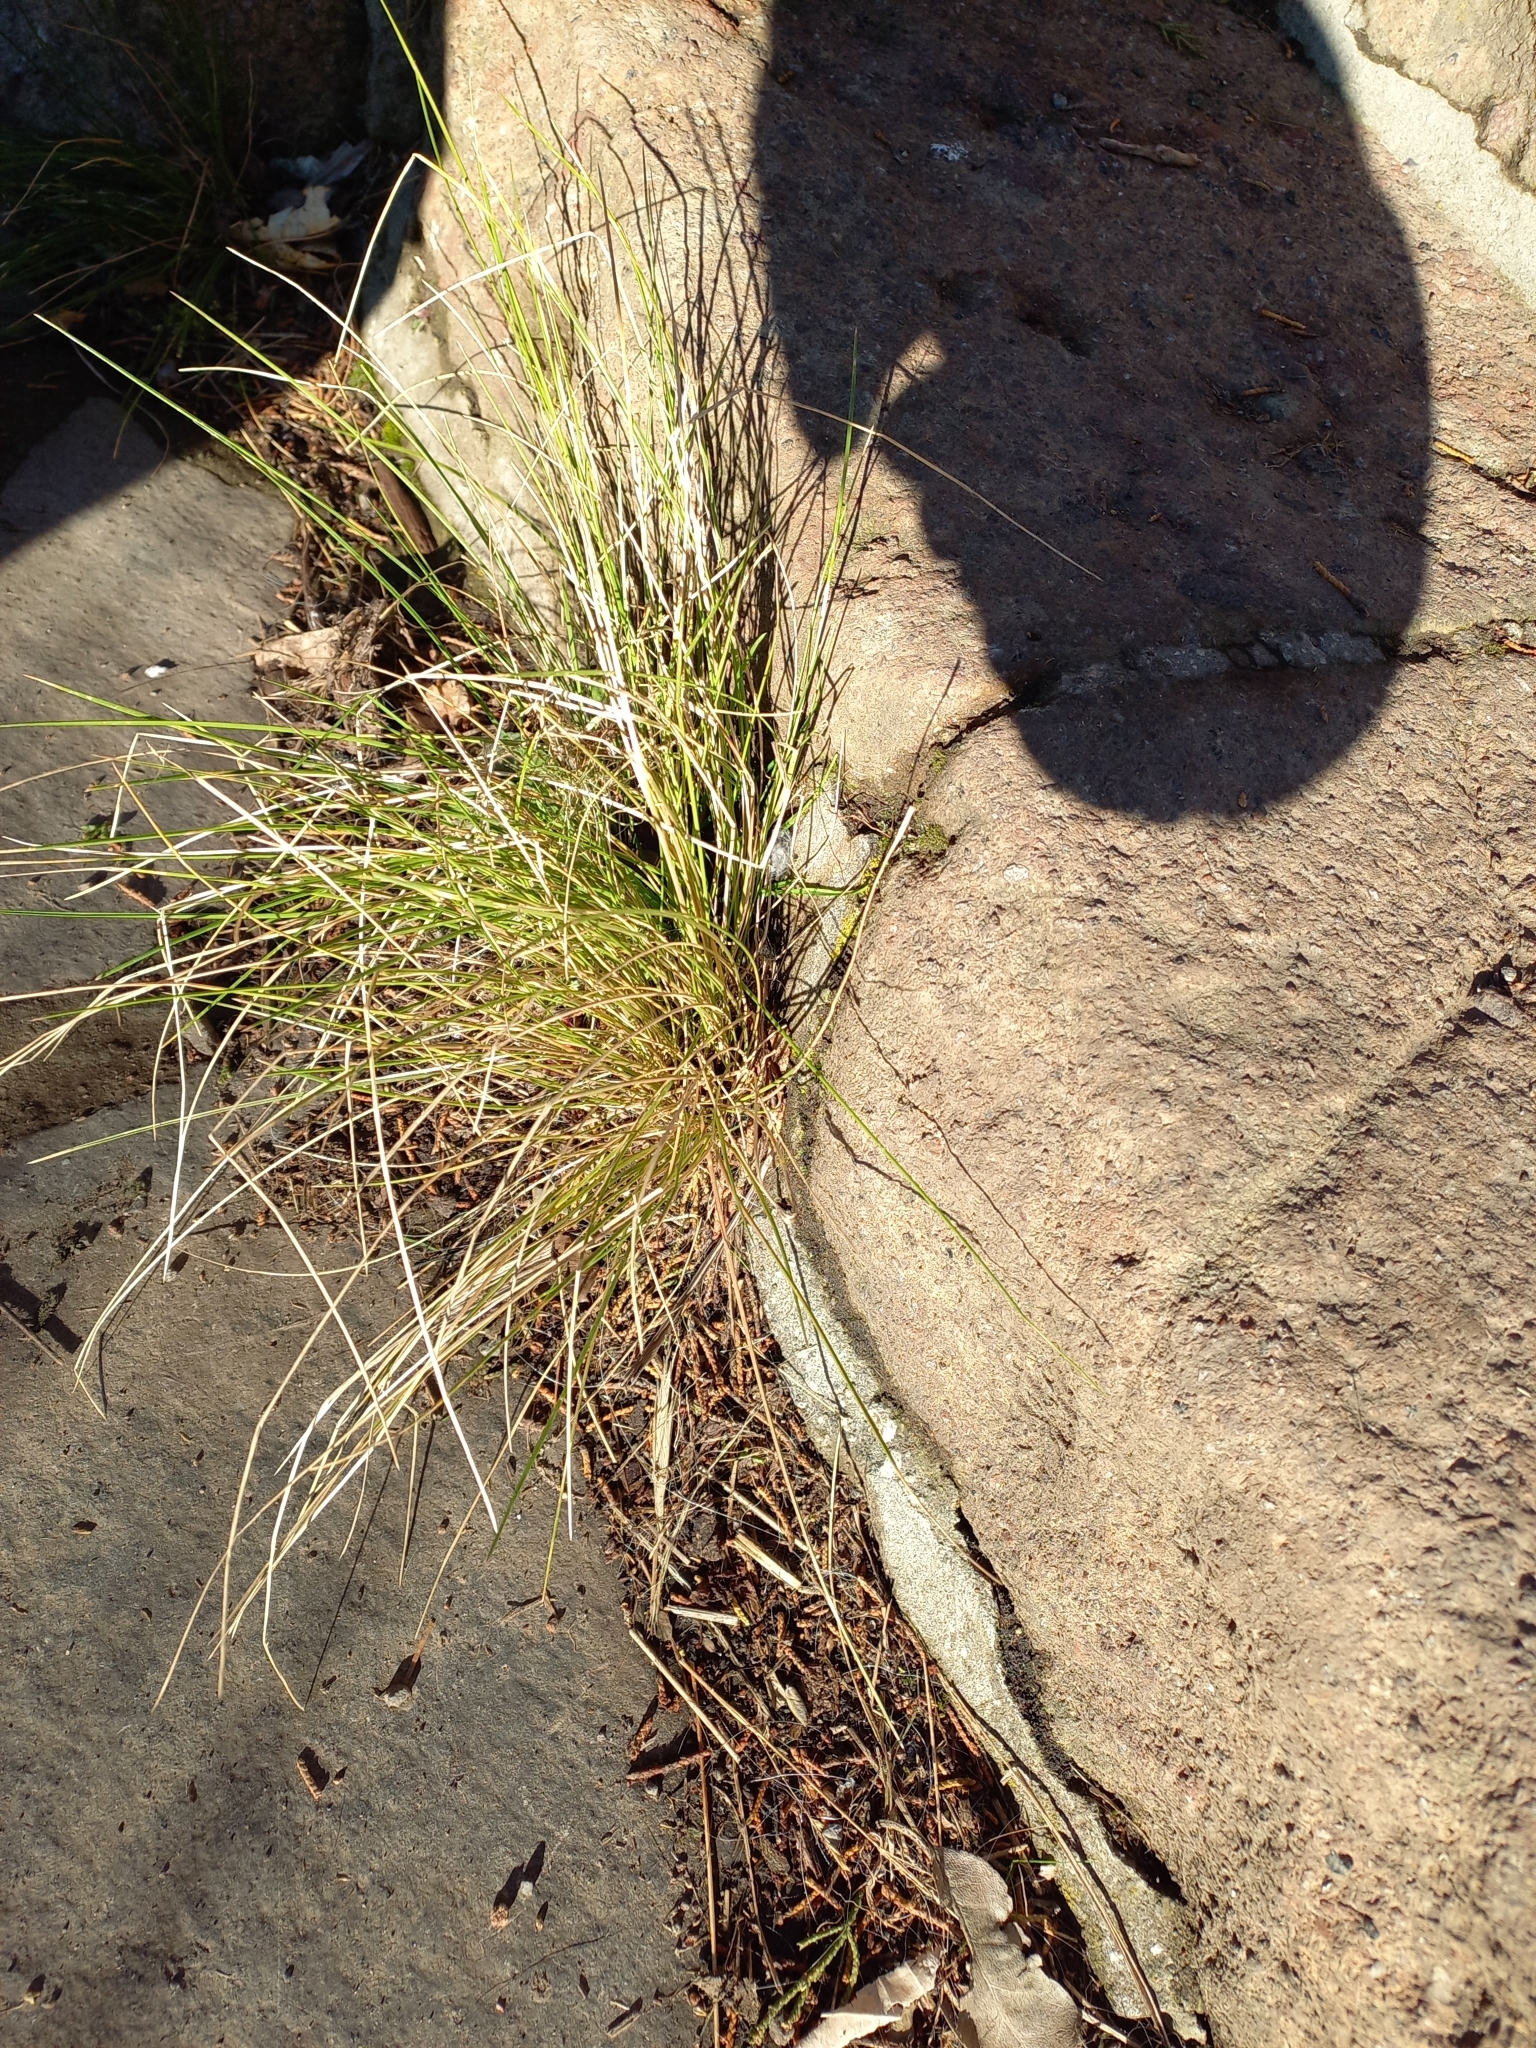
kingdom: Plantae
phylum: Tracheophyta
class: Liliopsida
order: Poales
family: Poaceae
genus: Poa
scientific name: Poa cita
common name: Silver tussock
